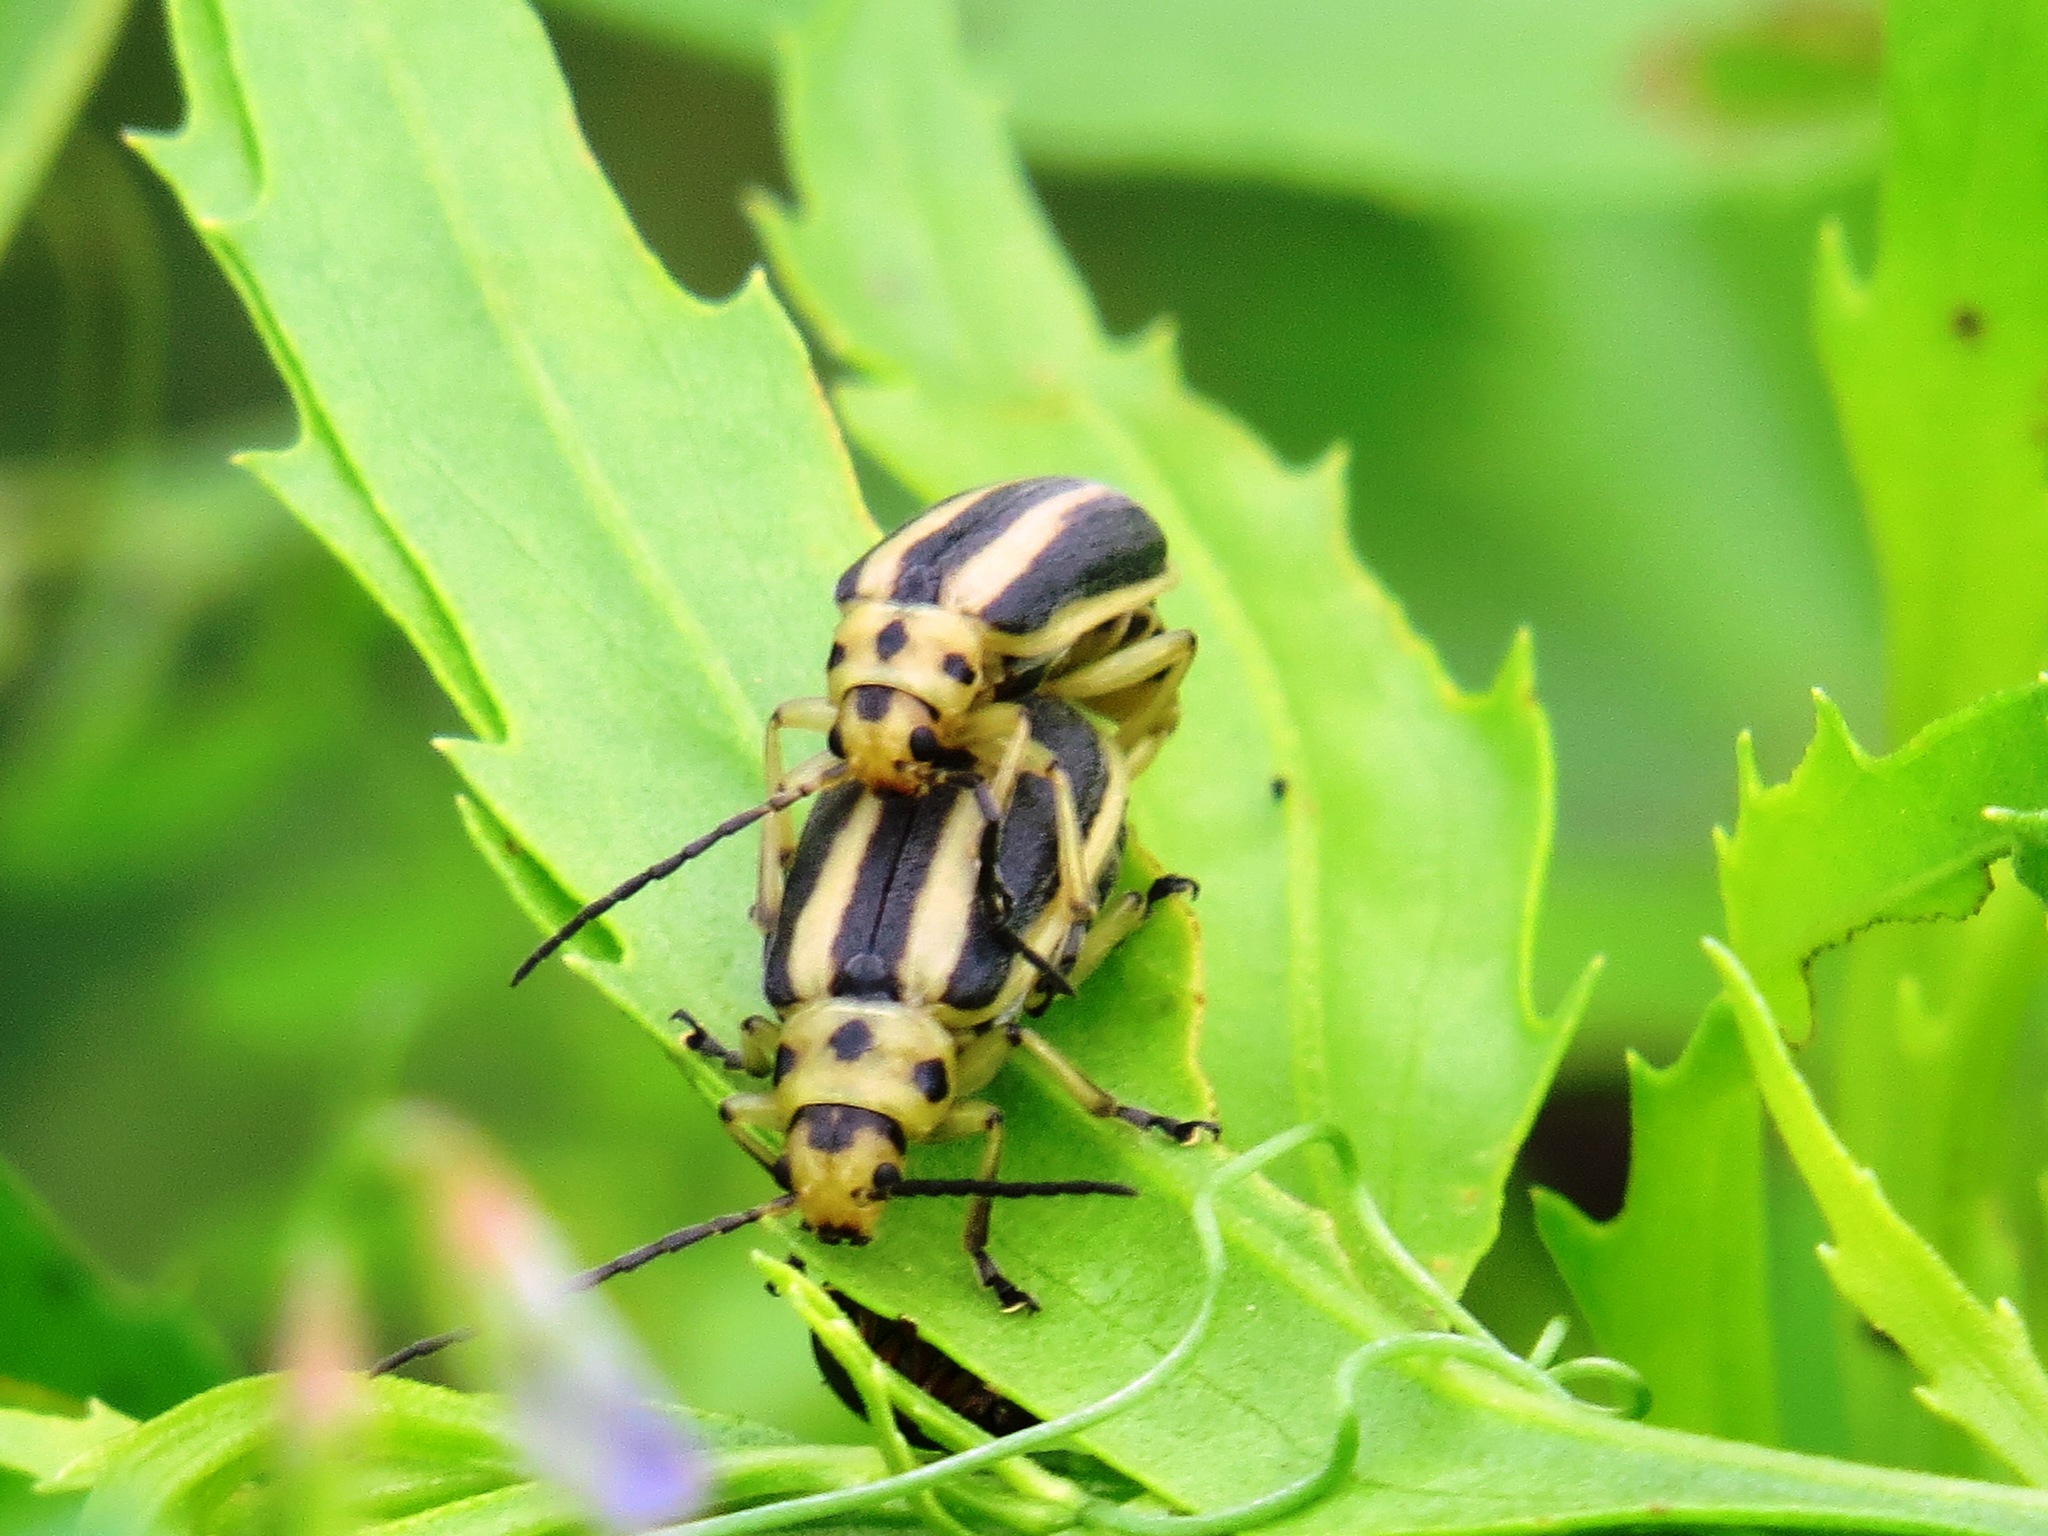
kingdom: Animalia
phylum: Arthropoda
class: Insecta
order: Coleoptera
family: Chrysomelidae
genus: Trirhabda
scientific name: Trirhabda bacharidis
